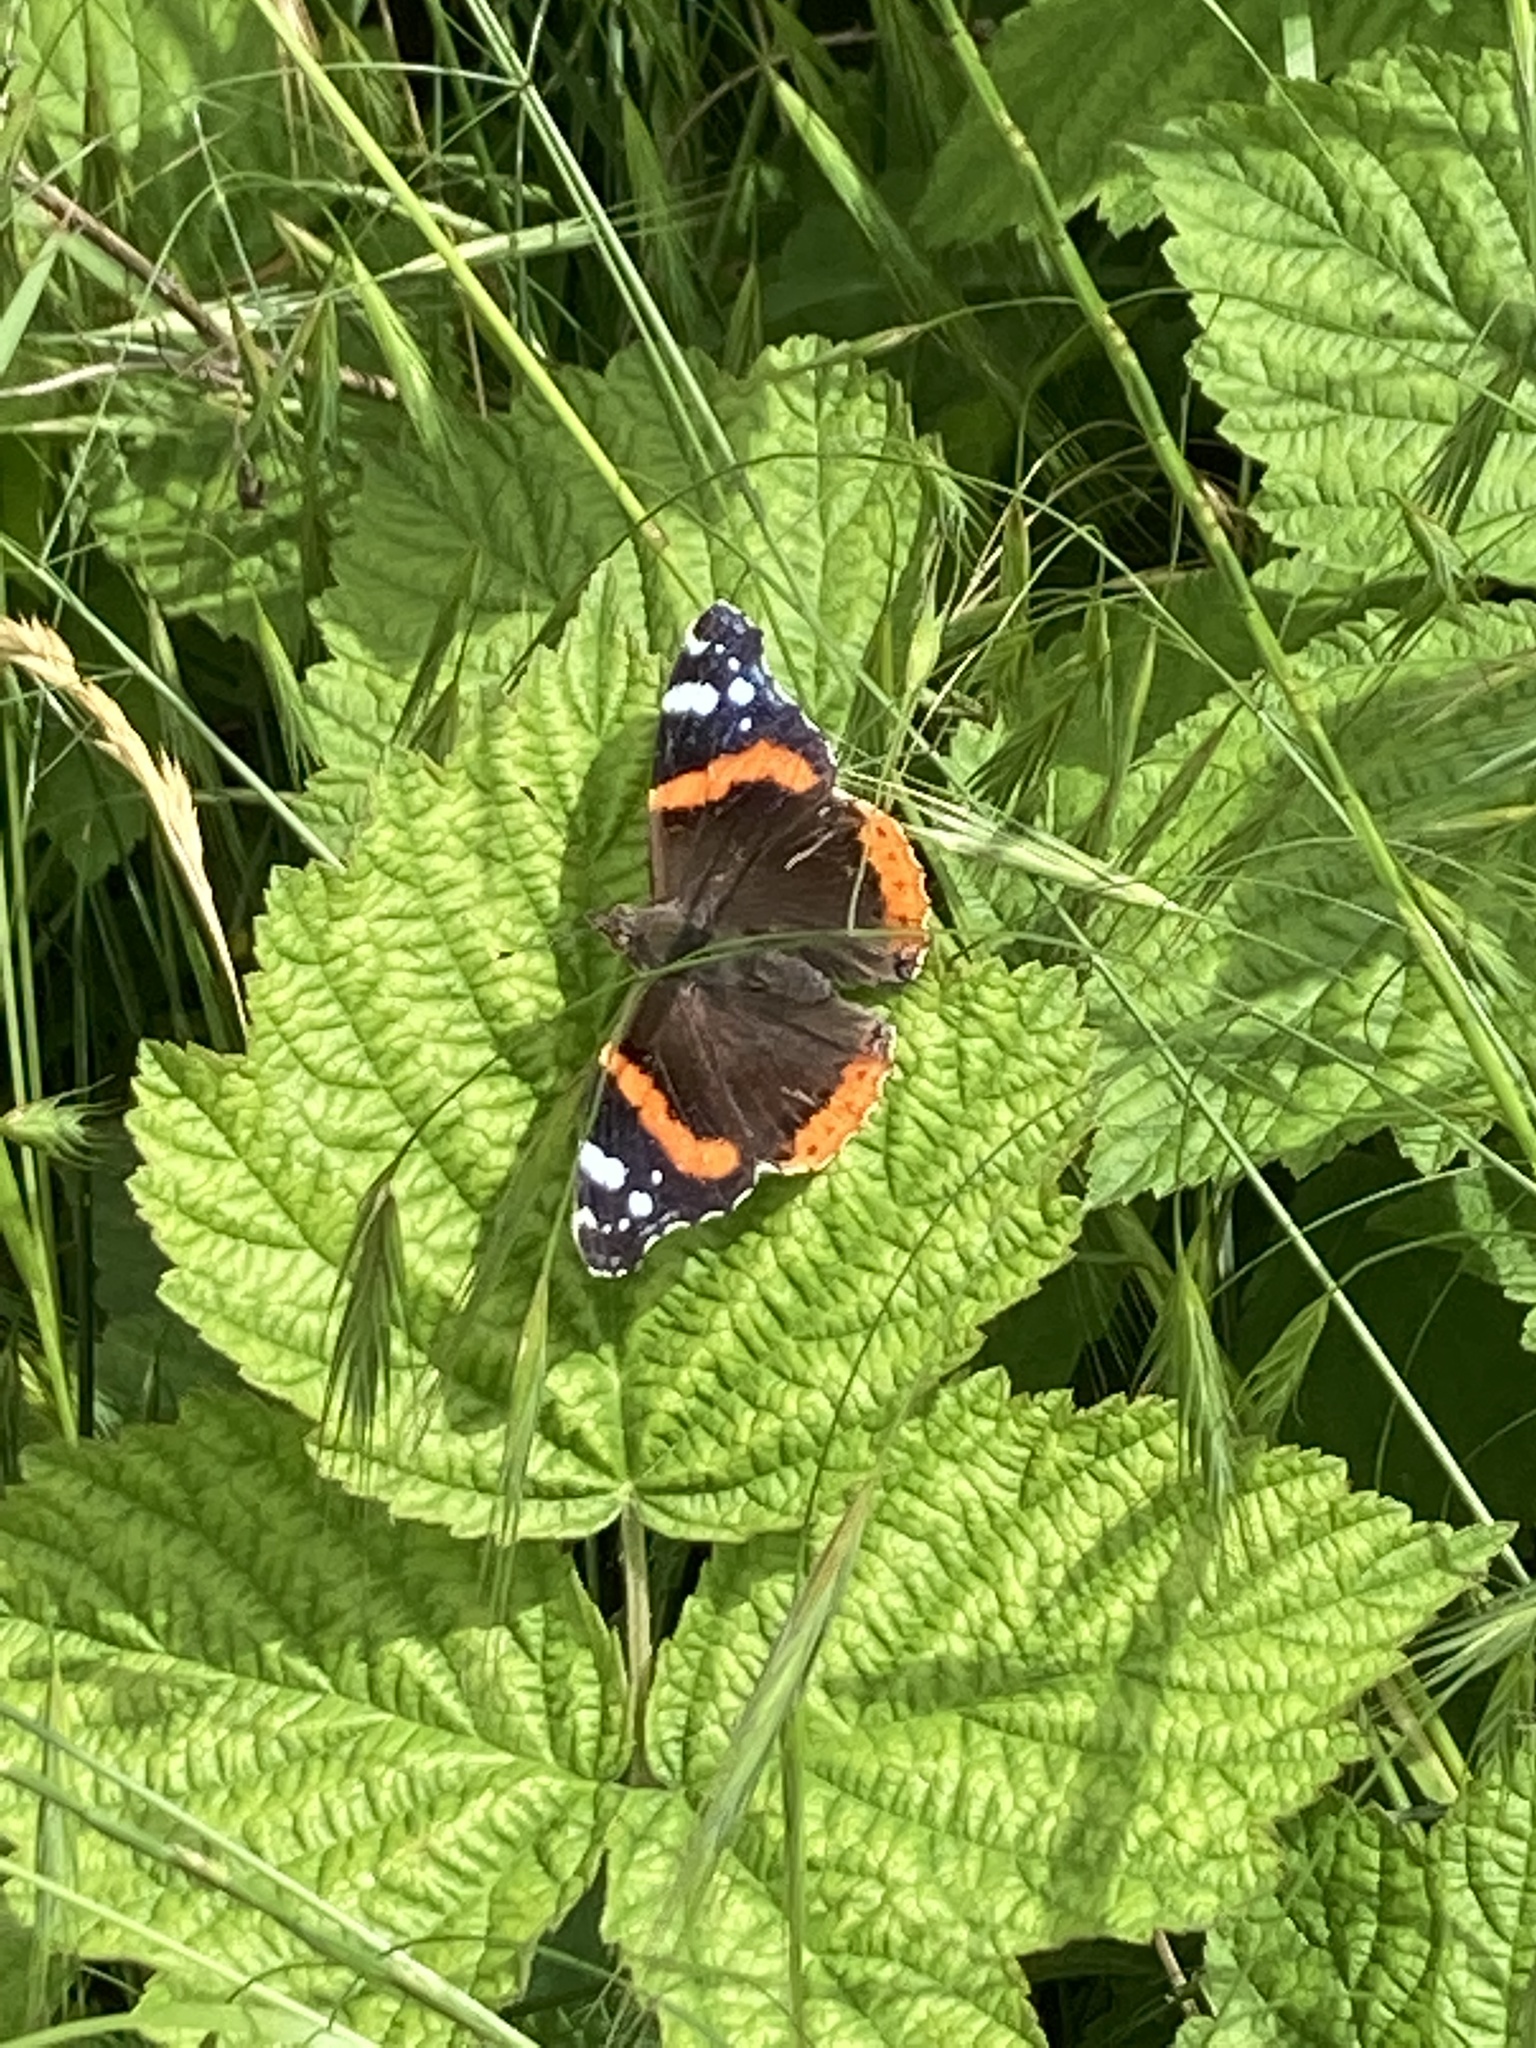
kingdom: Animalia
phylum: Arthropoda
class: Insecta
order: Lepidoptera
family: Nymphalidae
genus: Vanessa
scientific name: Vanessa atalanta
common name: Red admiral
